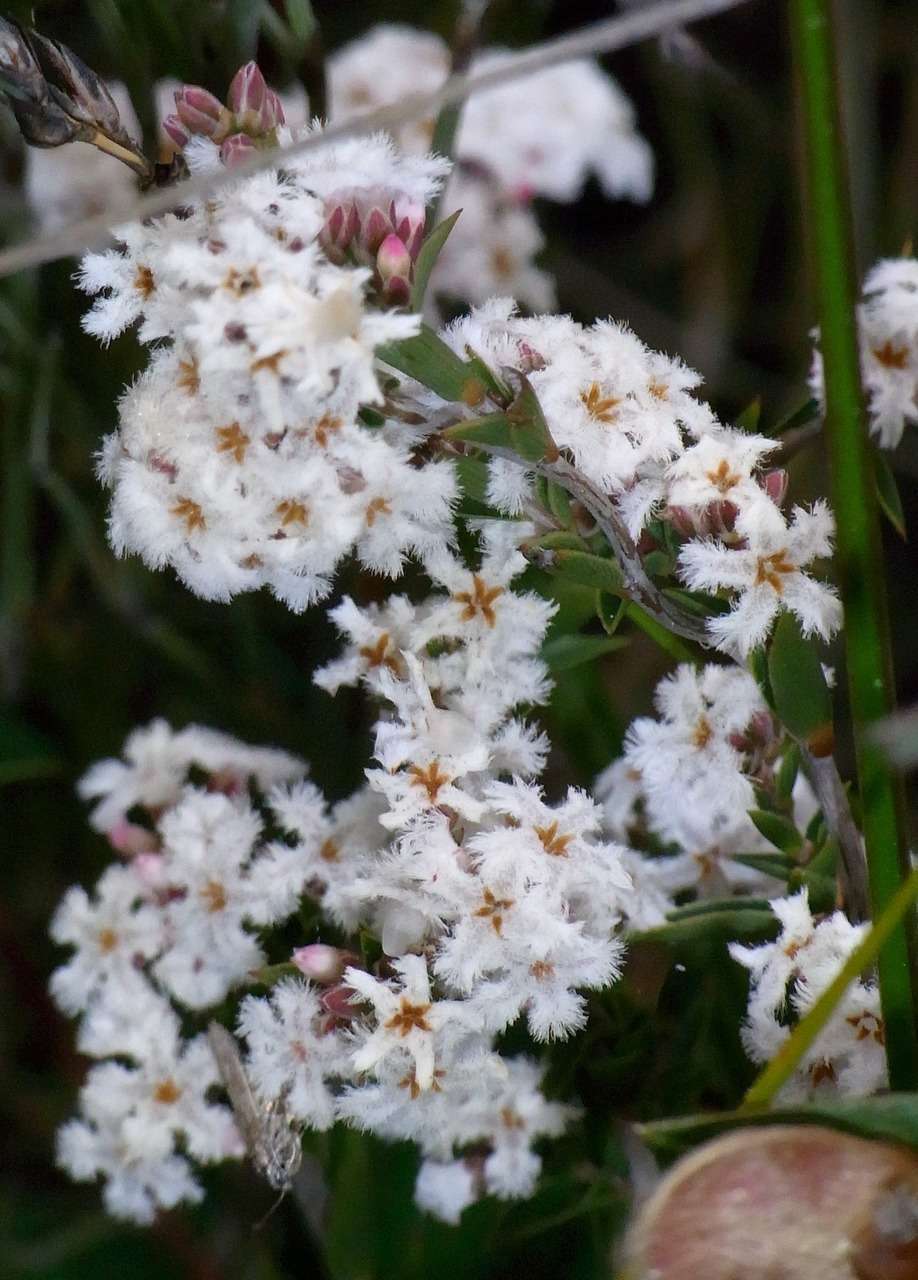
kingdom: Plantae
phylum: Tracheophyta
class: Magnoliopsida
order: Ericales
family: Ericaceae
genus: Leucopogon
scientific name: Leucopogon virgatus
